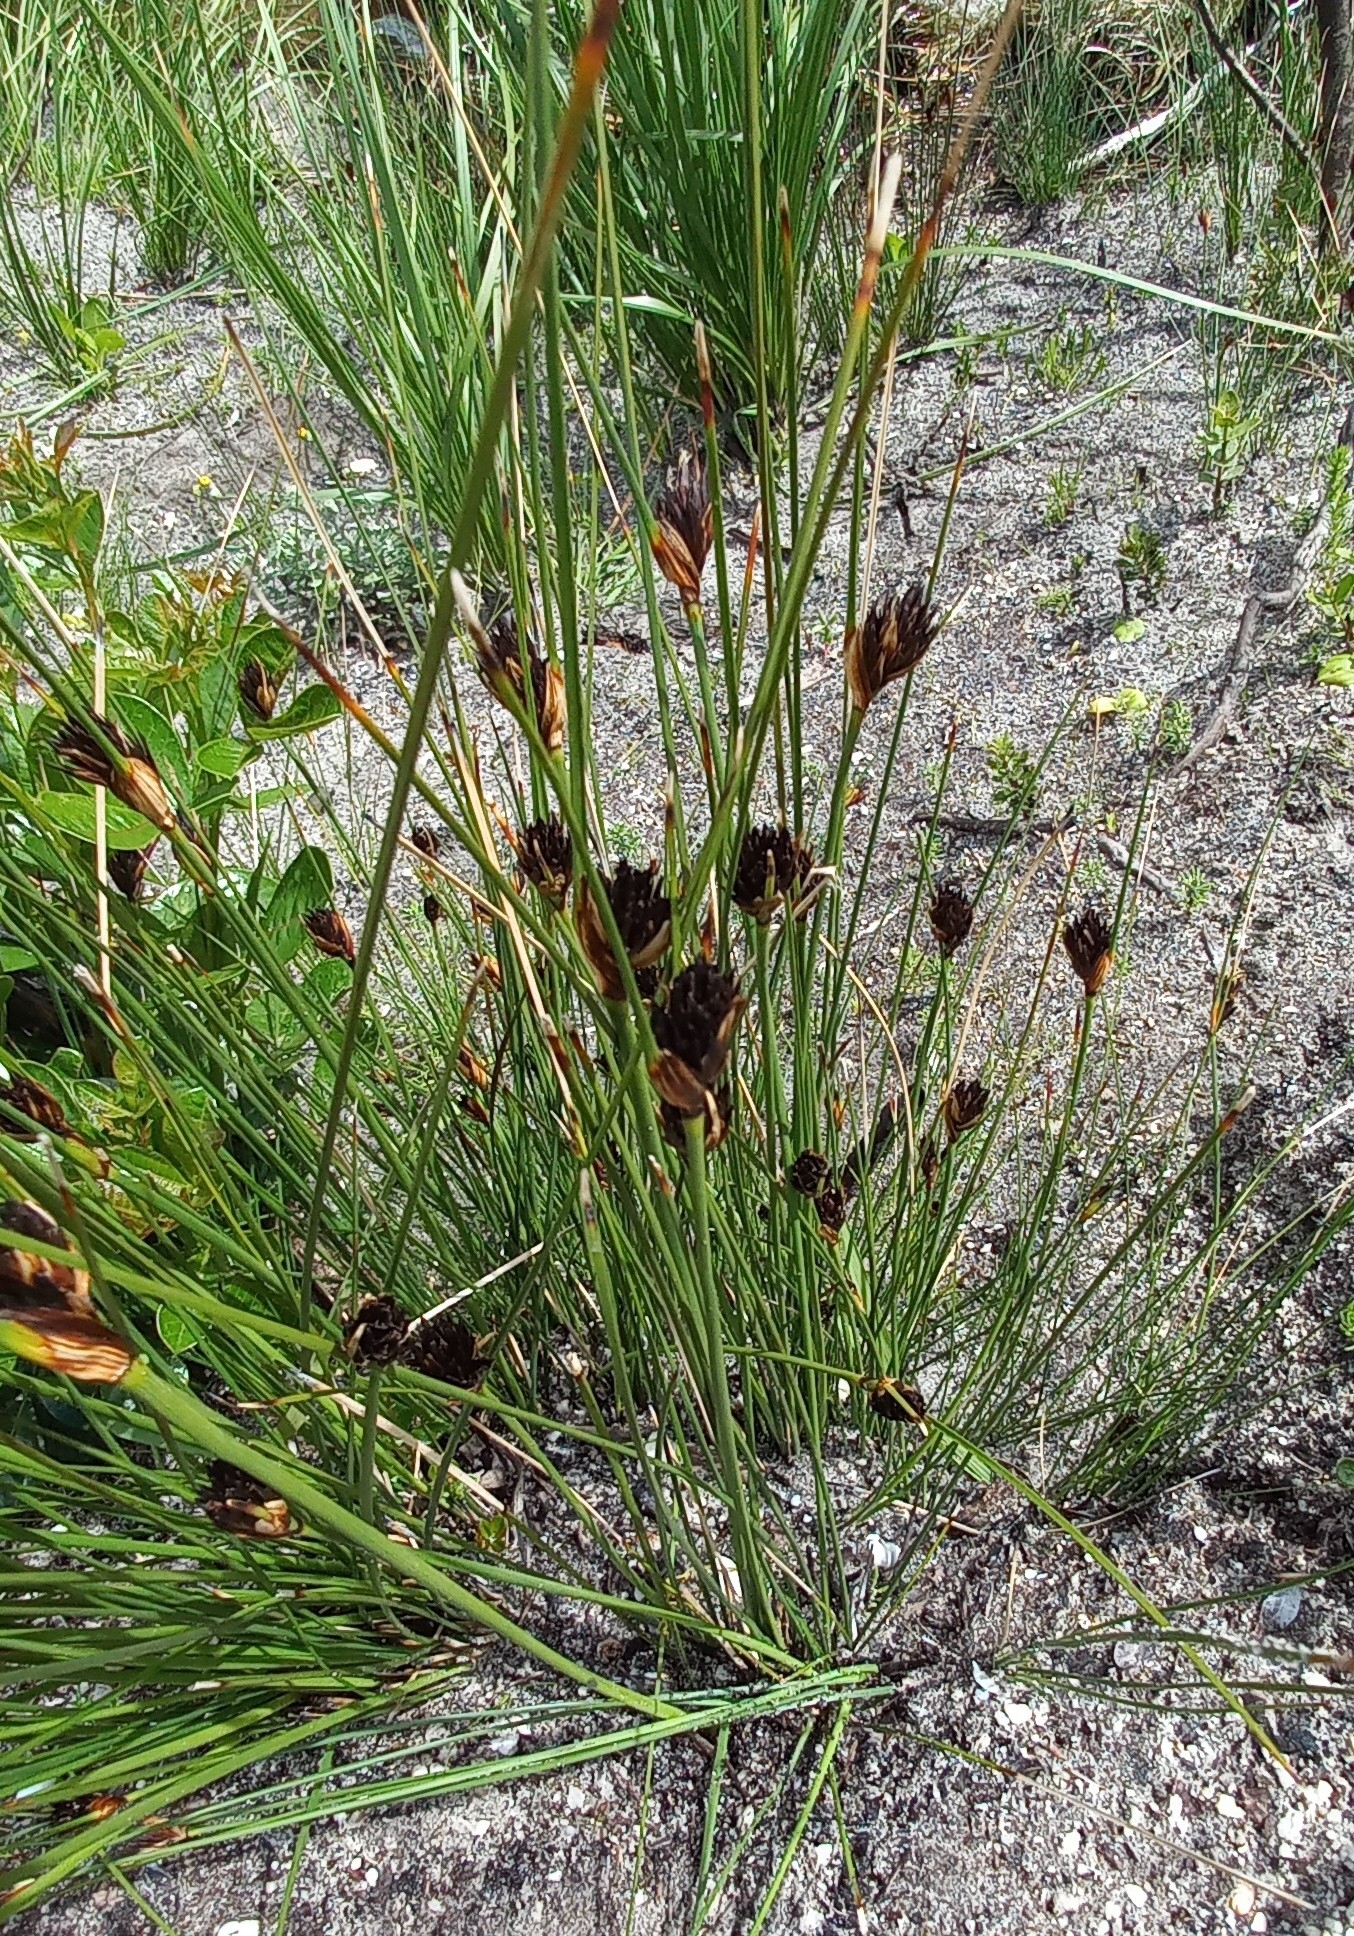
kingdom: Plantae
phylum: Tracheophyta
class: Liliopsida
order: Poales
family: Cyperaceae
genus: Schoenus
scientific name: Schoenus nigricans
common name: Black bog-rush
